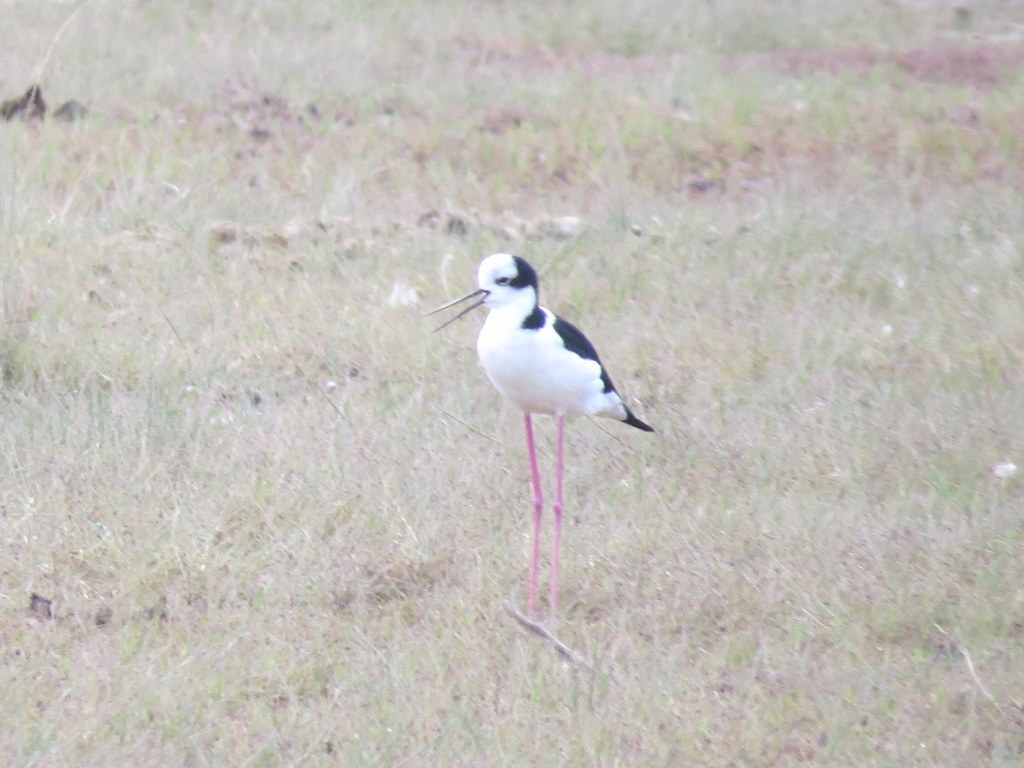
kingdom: Animalia
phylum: Chordata
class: Aves
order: Charadriiformes
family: Recurvirostridae
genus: Himantopus
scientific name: Himantopus mexicanus
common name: Black-necked stilt
